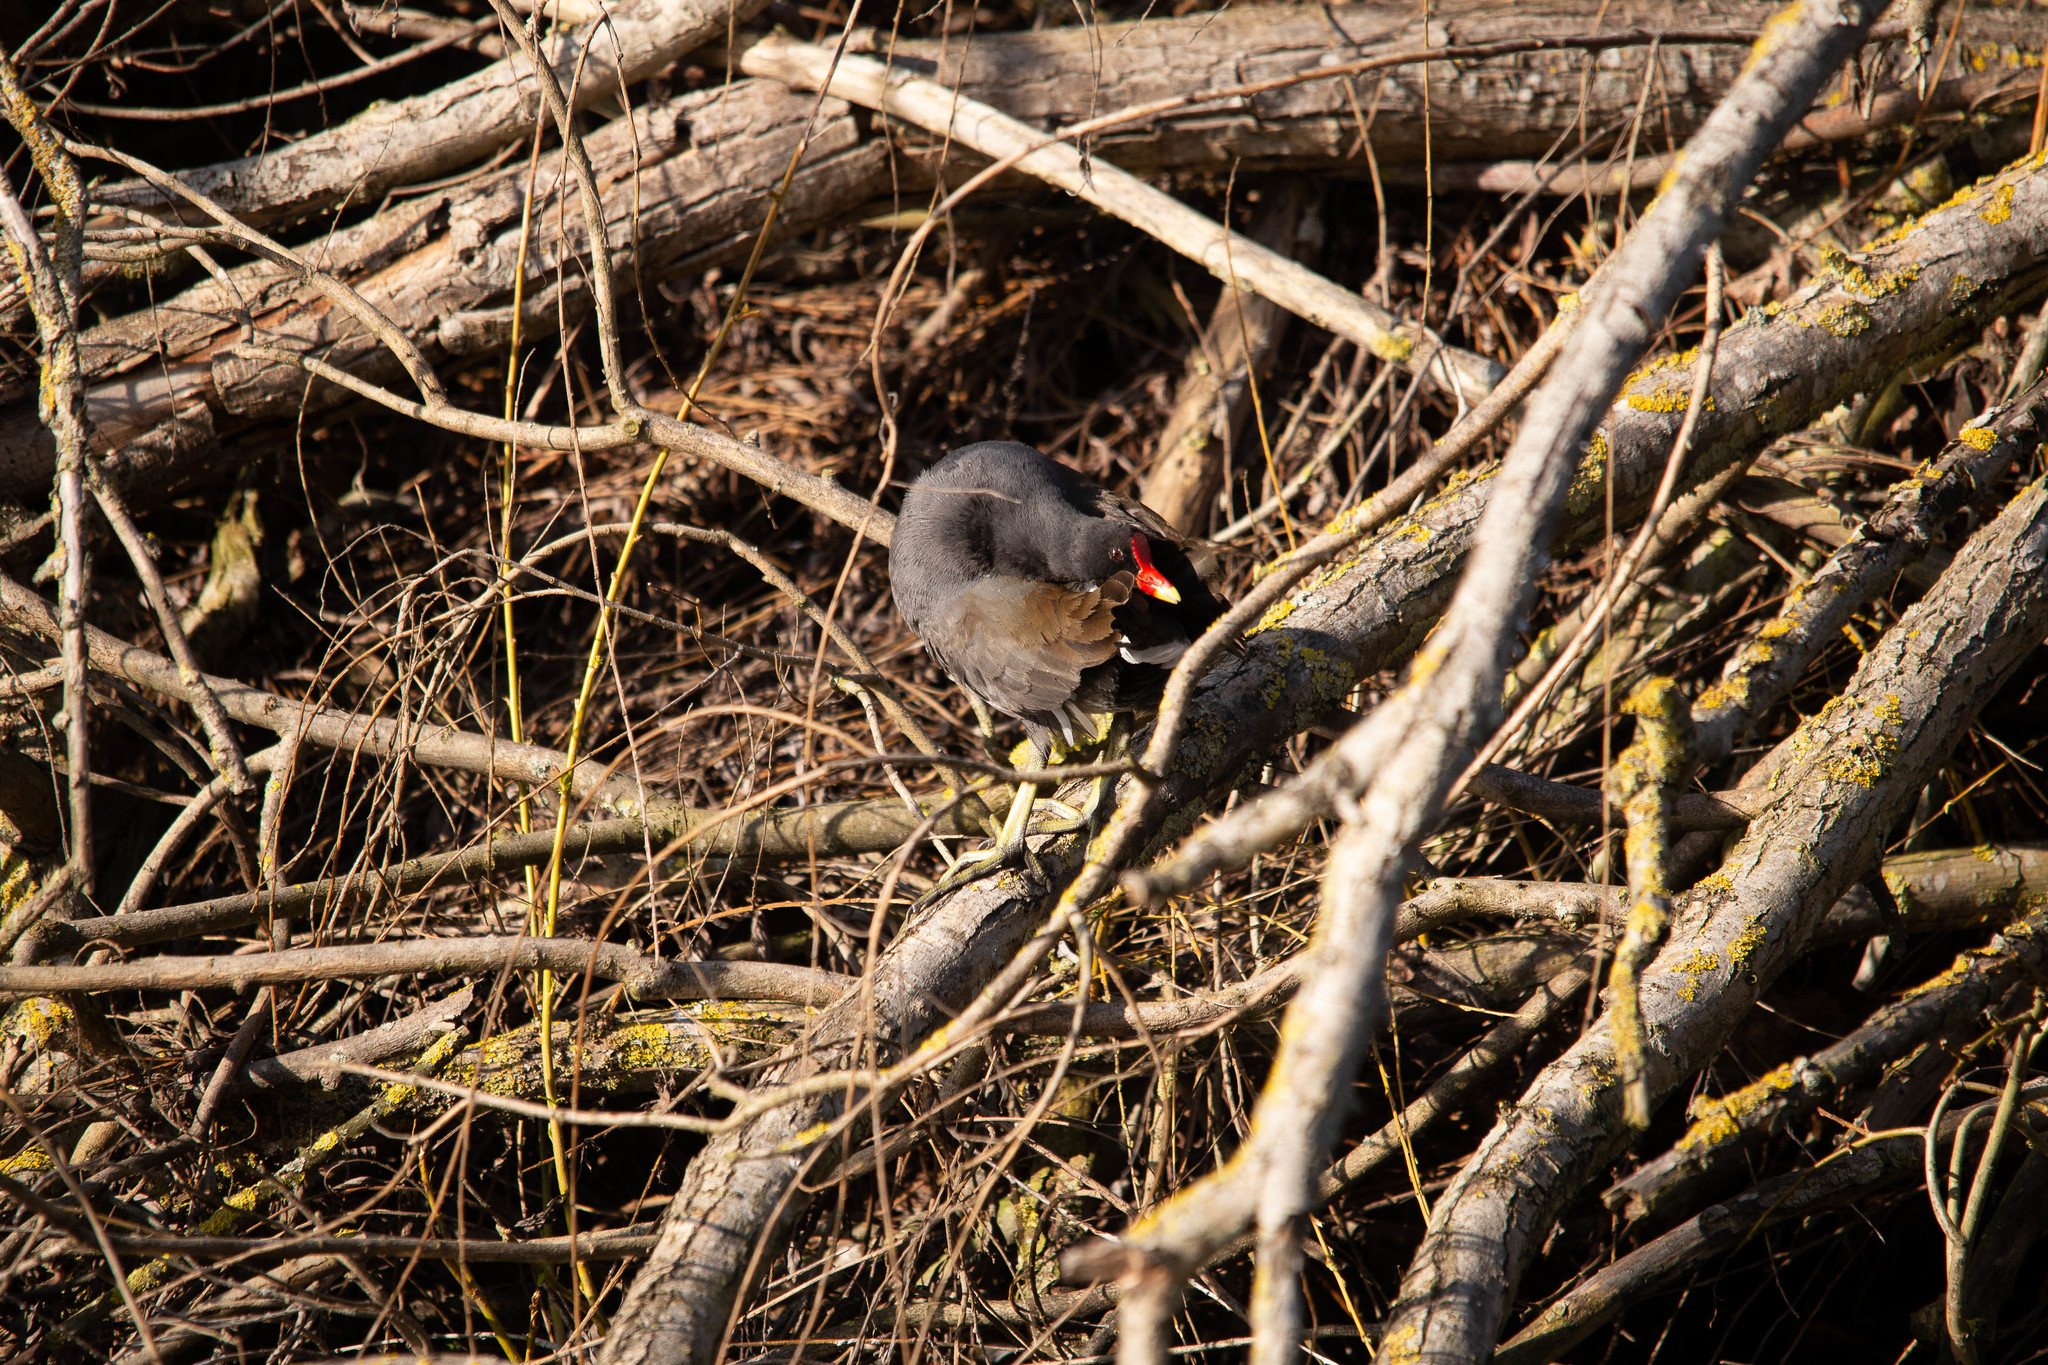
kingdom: Animalia
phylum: Chordata
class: Aves
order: Gruiformes
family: Rallidae
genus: Gallinula
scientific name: Gallinula chloropus
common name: Common moorhen
